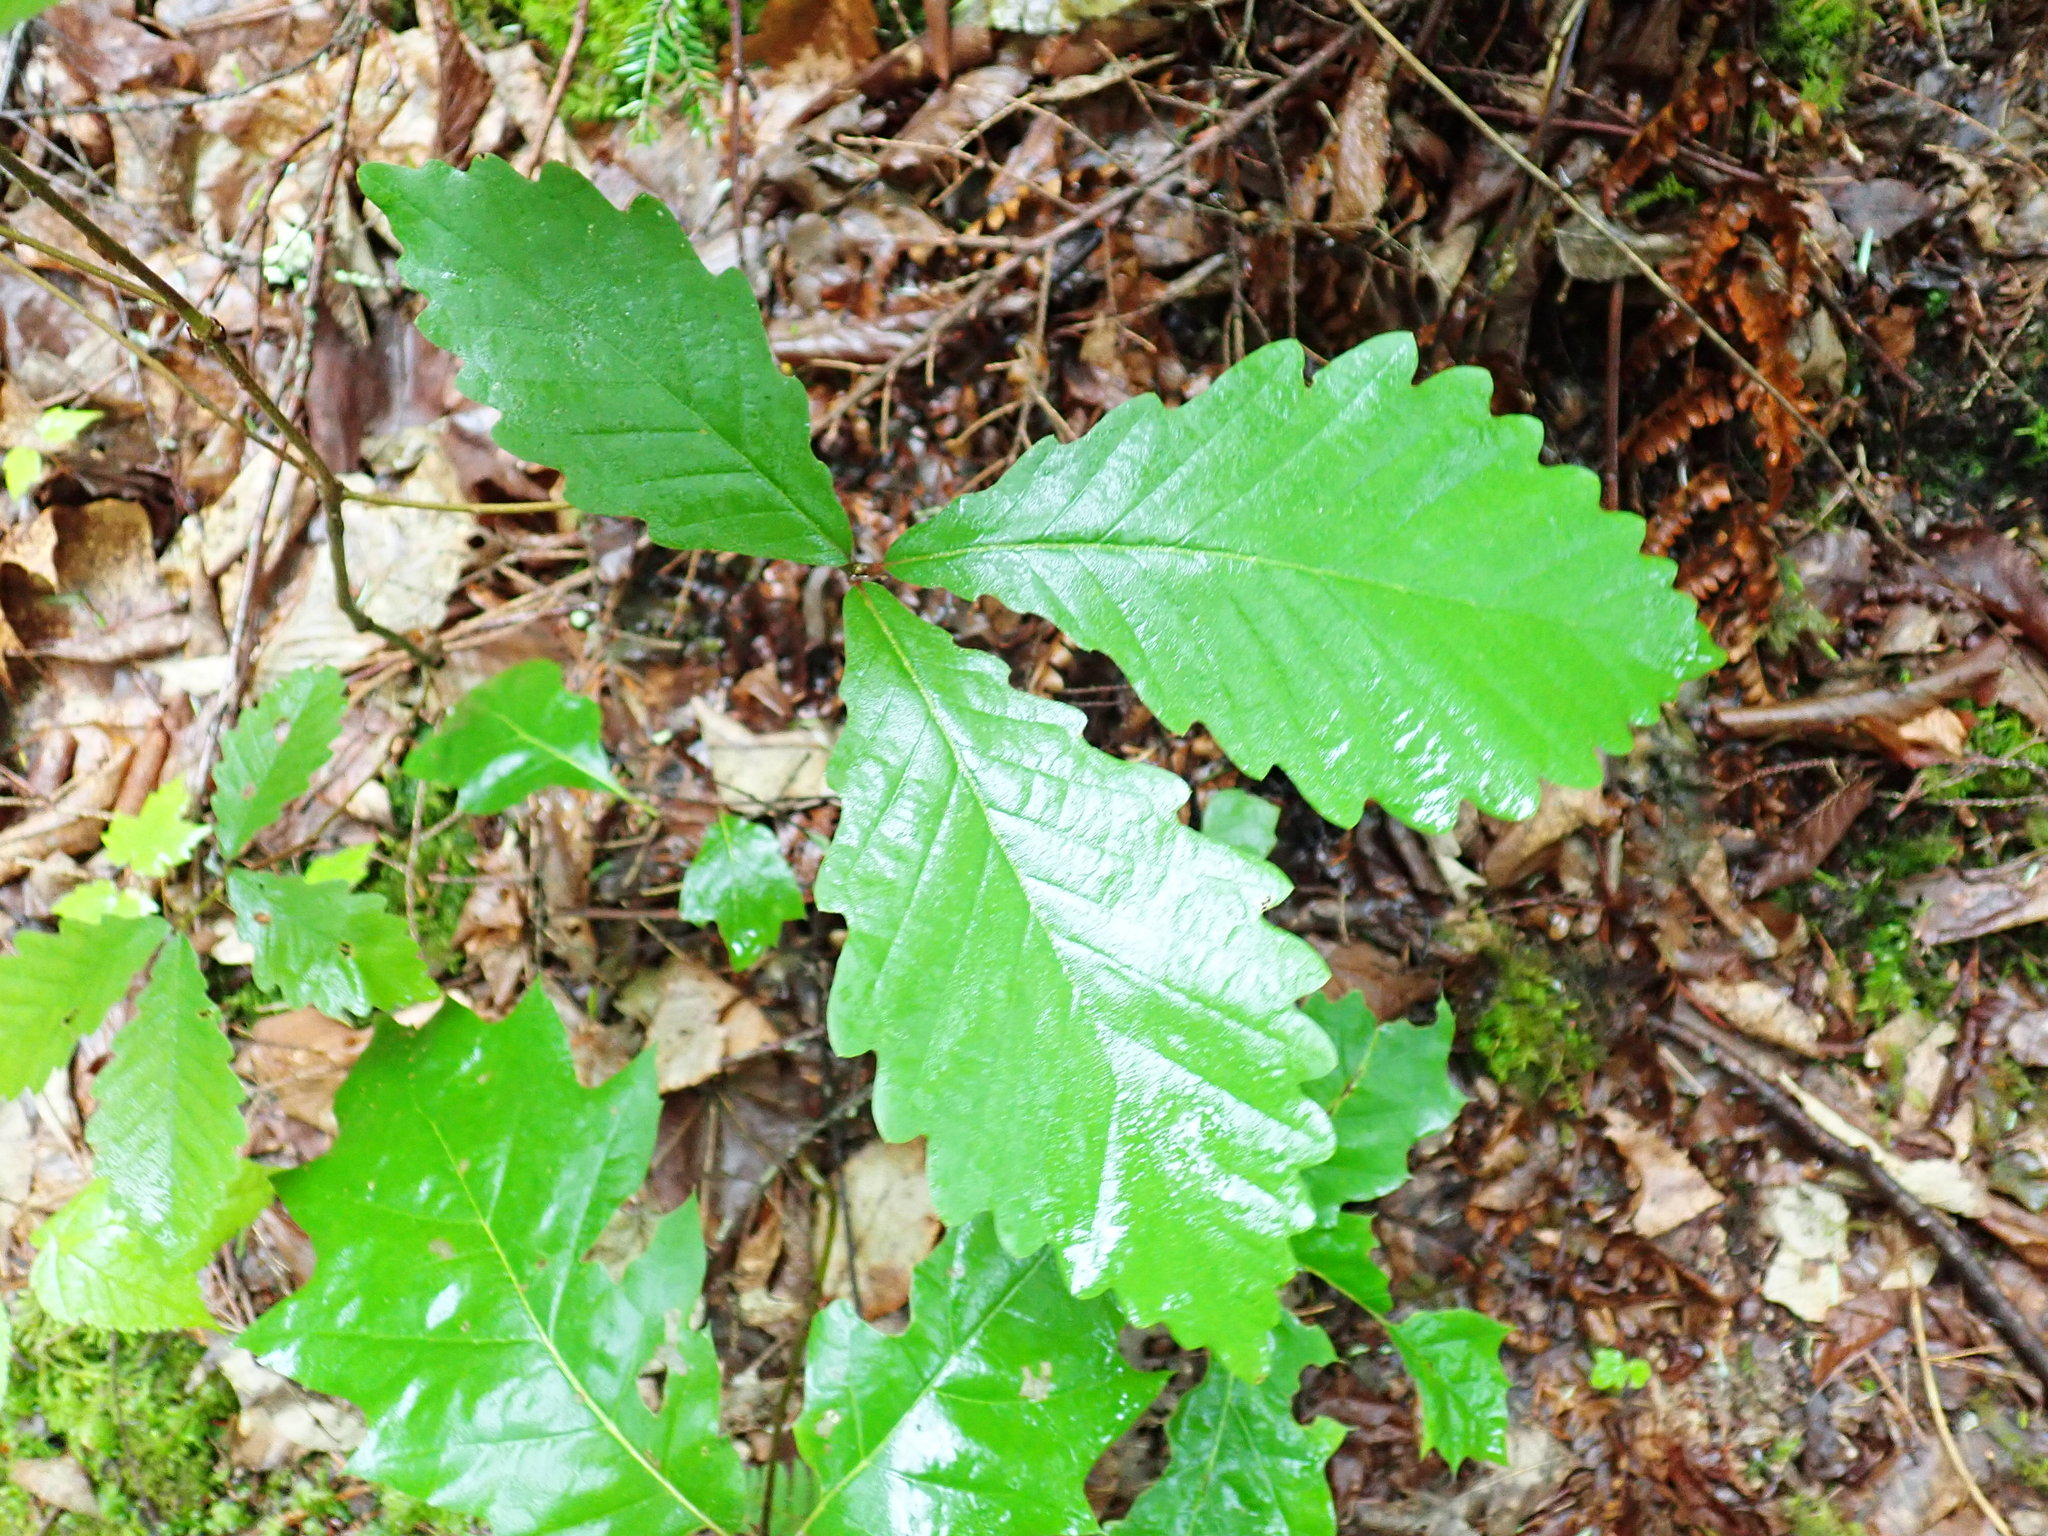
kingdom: Plantae
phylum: Tracheophyta
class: Magnoliopsida
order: Fagales
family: Fagaceae
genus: Quercus
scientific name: Quercus montana
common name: Chestnut oak
